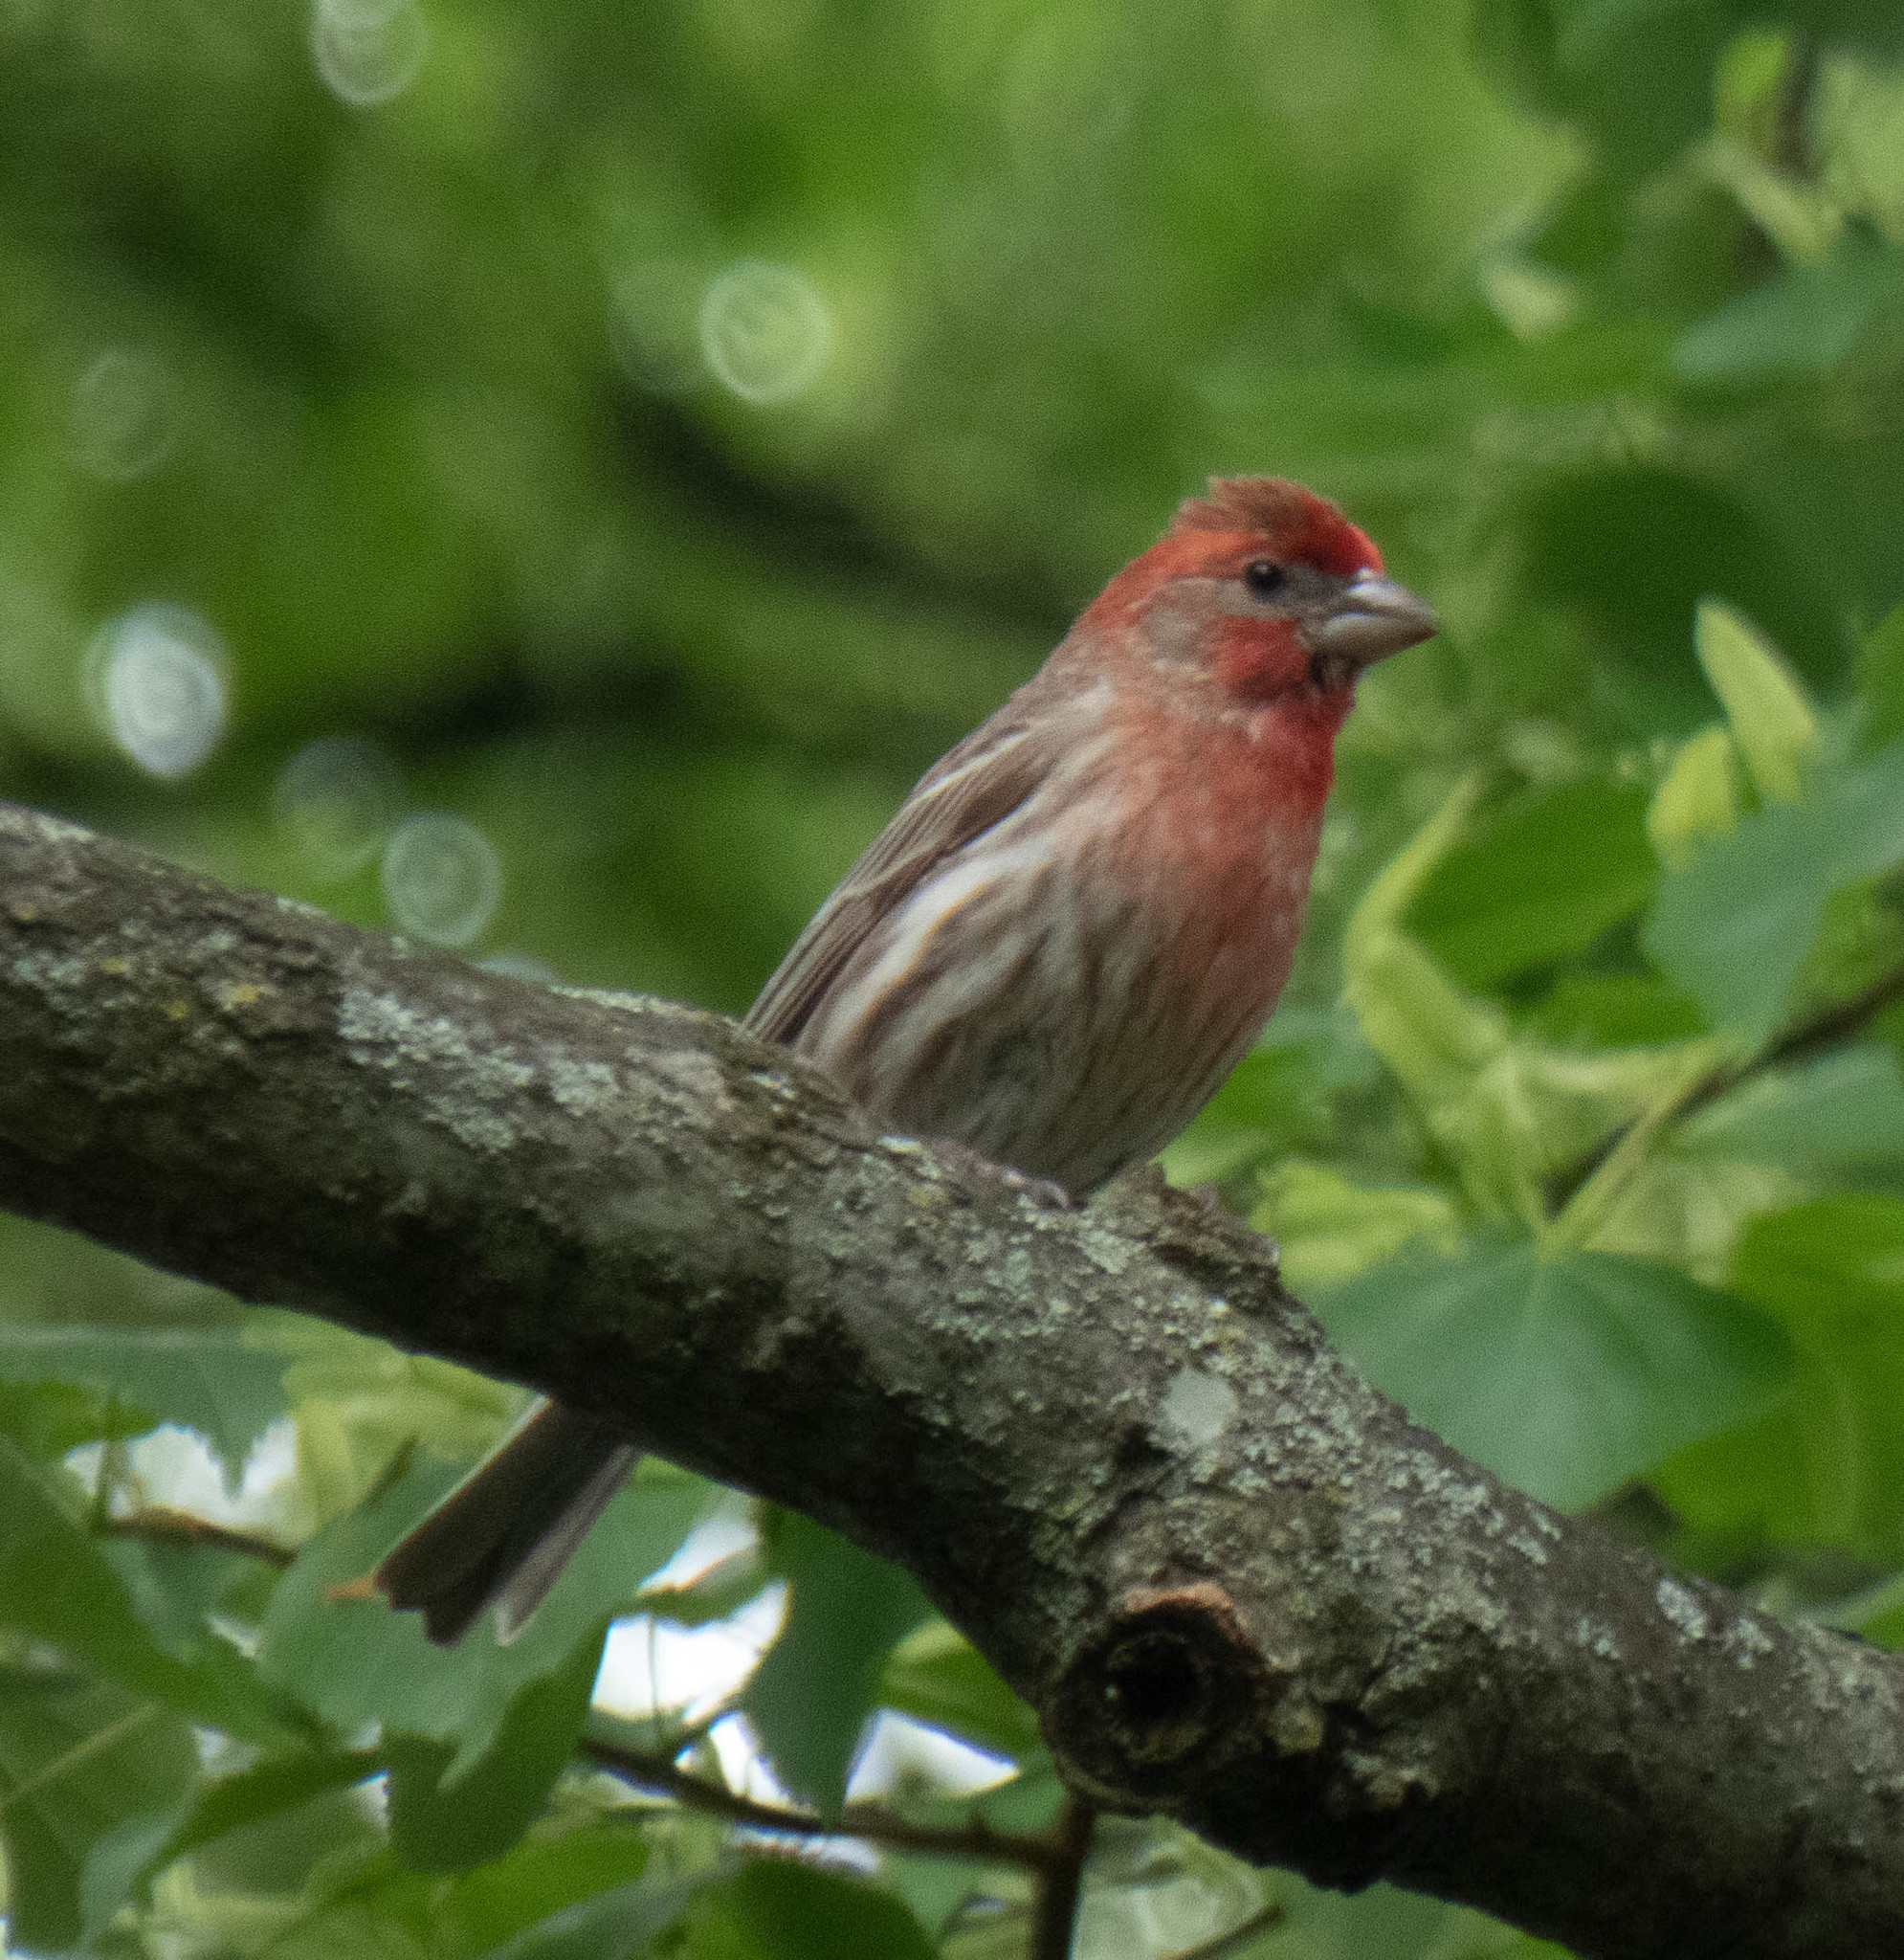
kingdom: Animalia
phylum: Chordata
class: Aves
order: Passeriformes
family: Fringillidae
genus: Haemorhous
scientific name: Haemorhous mexicanus
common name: House finch
